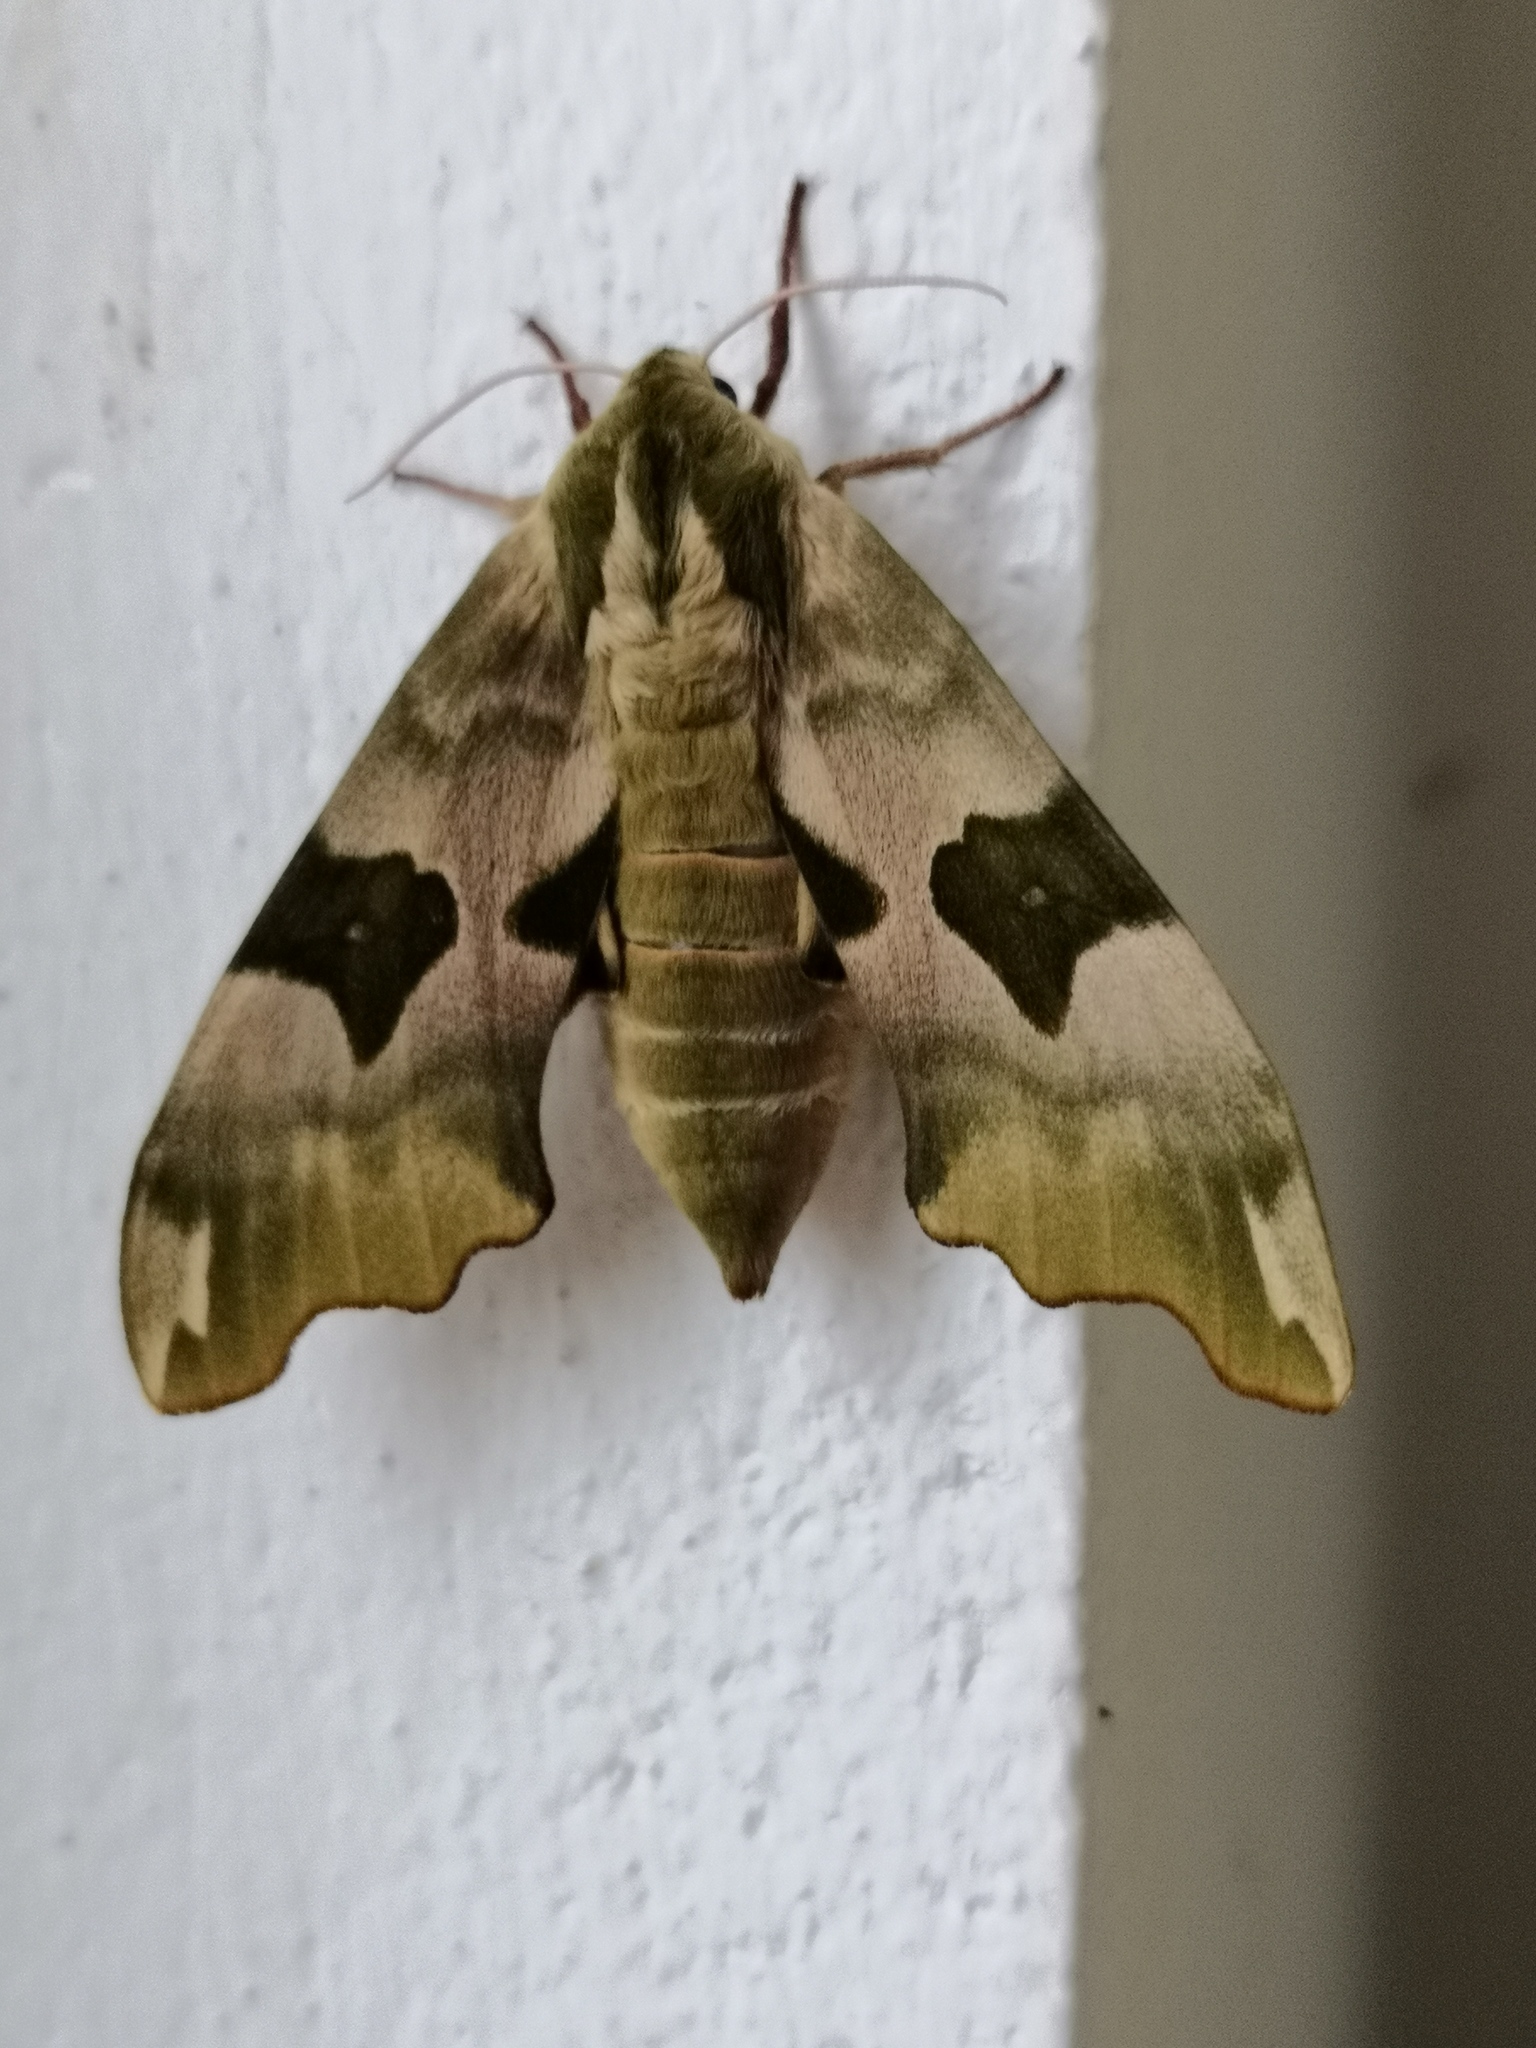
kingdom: Animalia
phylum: Arthropoda
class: Insecta
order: Lepidoptera
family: Sphingidae
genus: Mimas
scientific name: Mimas tiliae
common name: Lime hawk-moth
